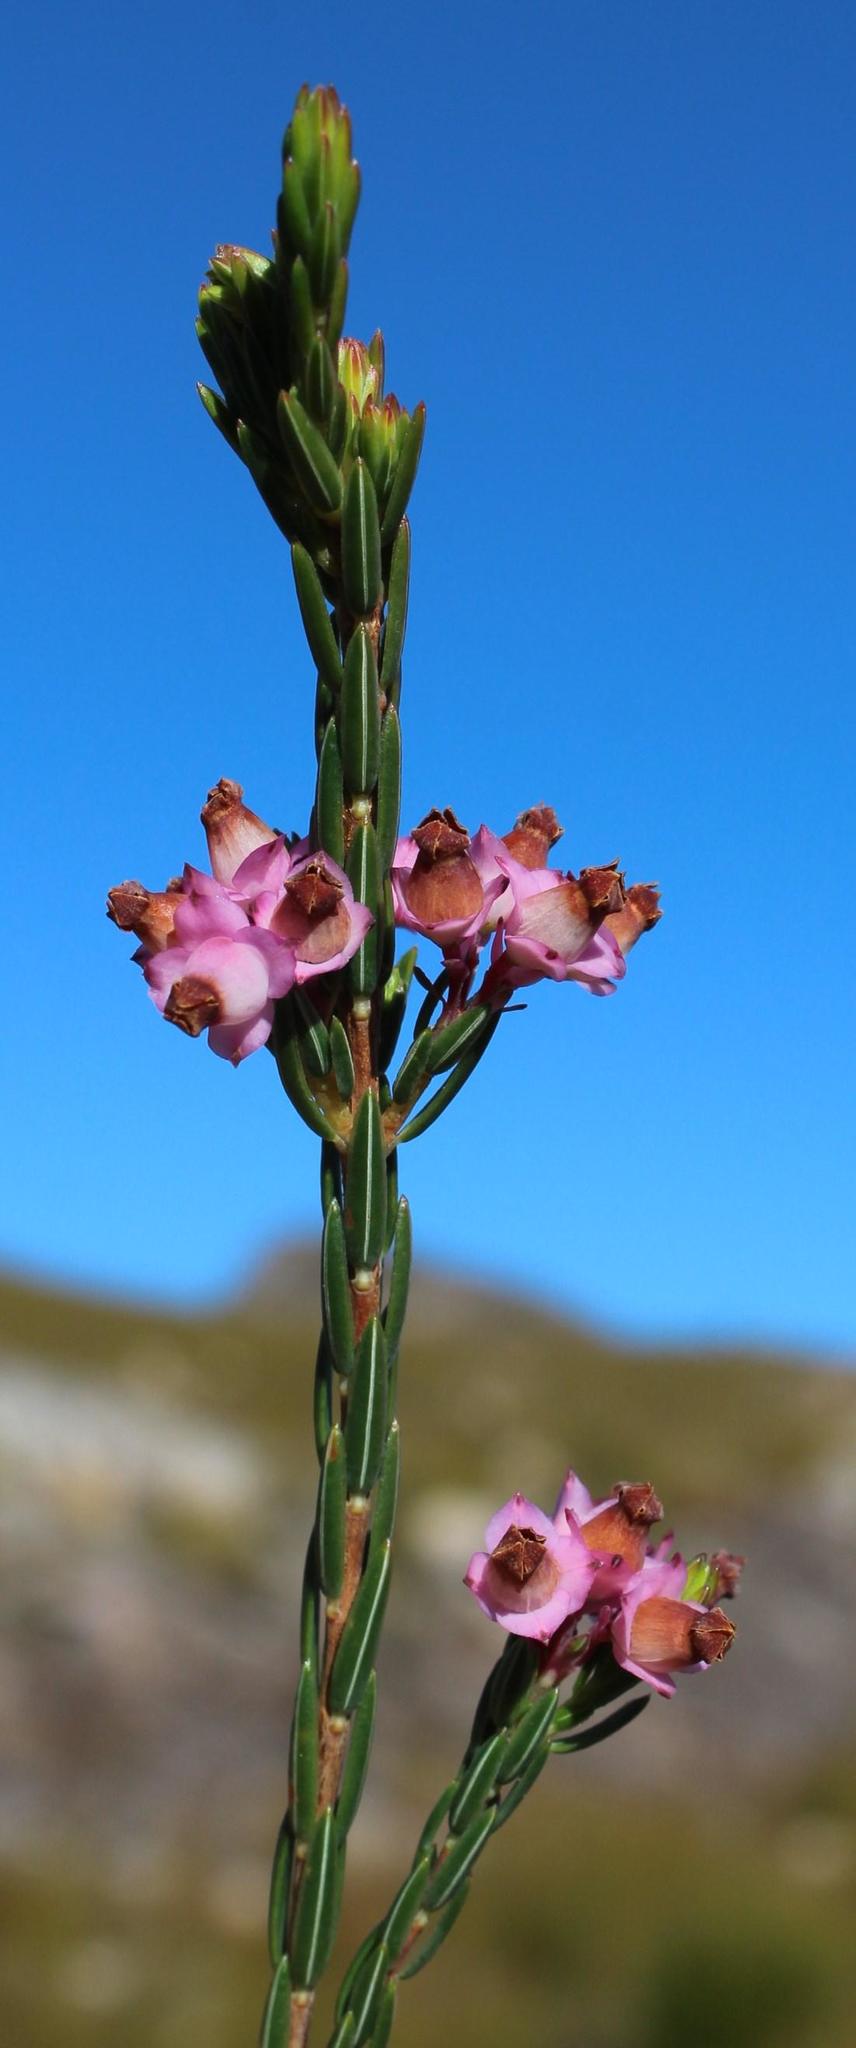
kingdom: Plantae
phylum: Tracheophyta
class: Magnoliopsida
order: Ericales
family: Ericaceae
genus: Erica
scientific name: Erica corifolia
